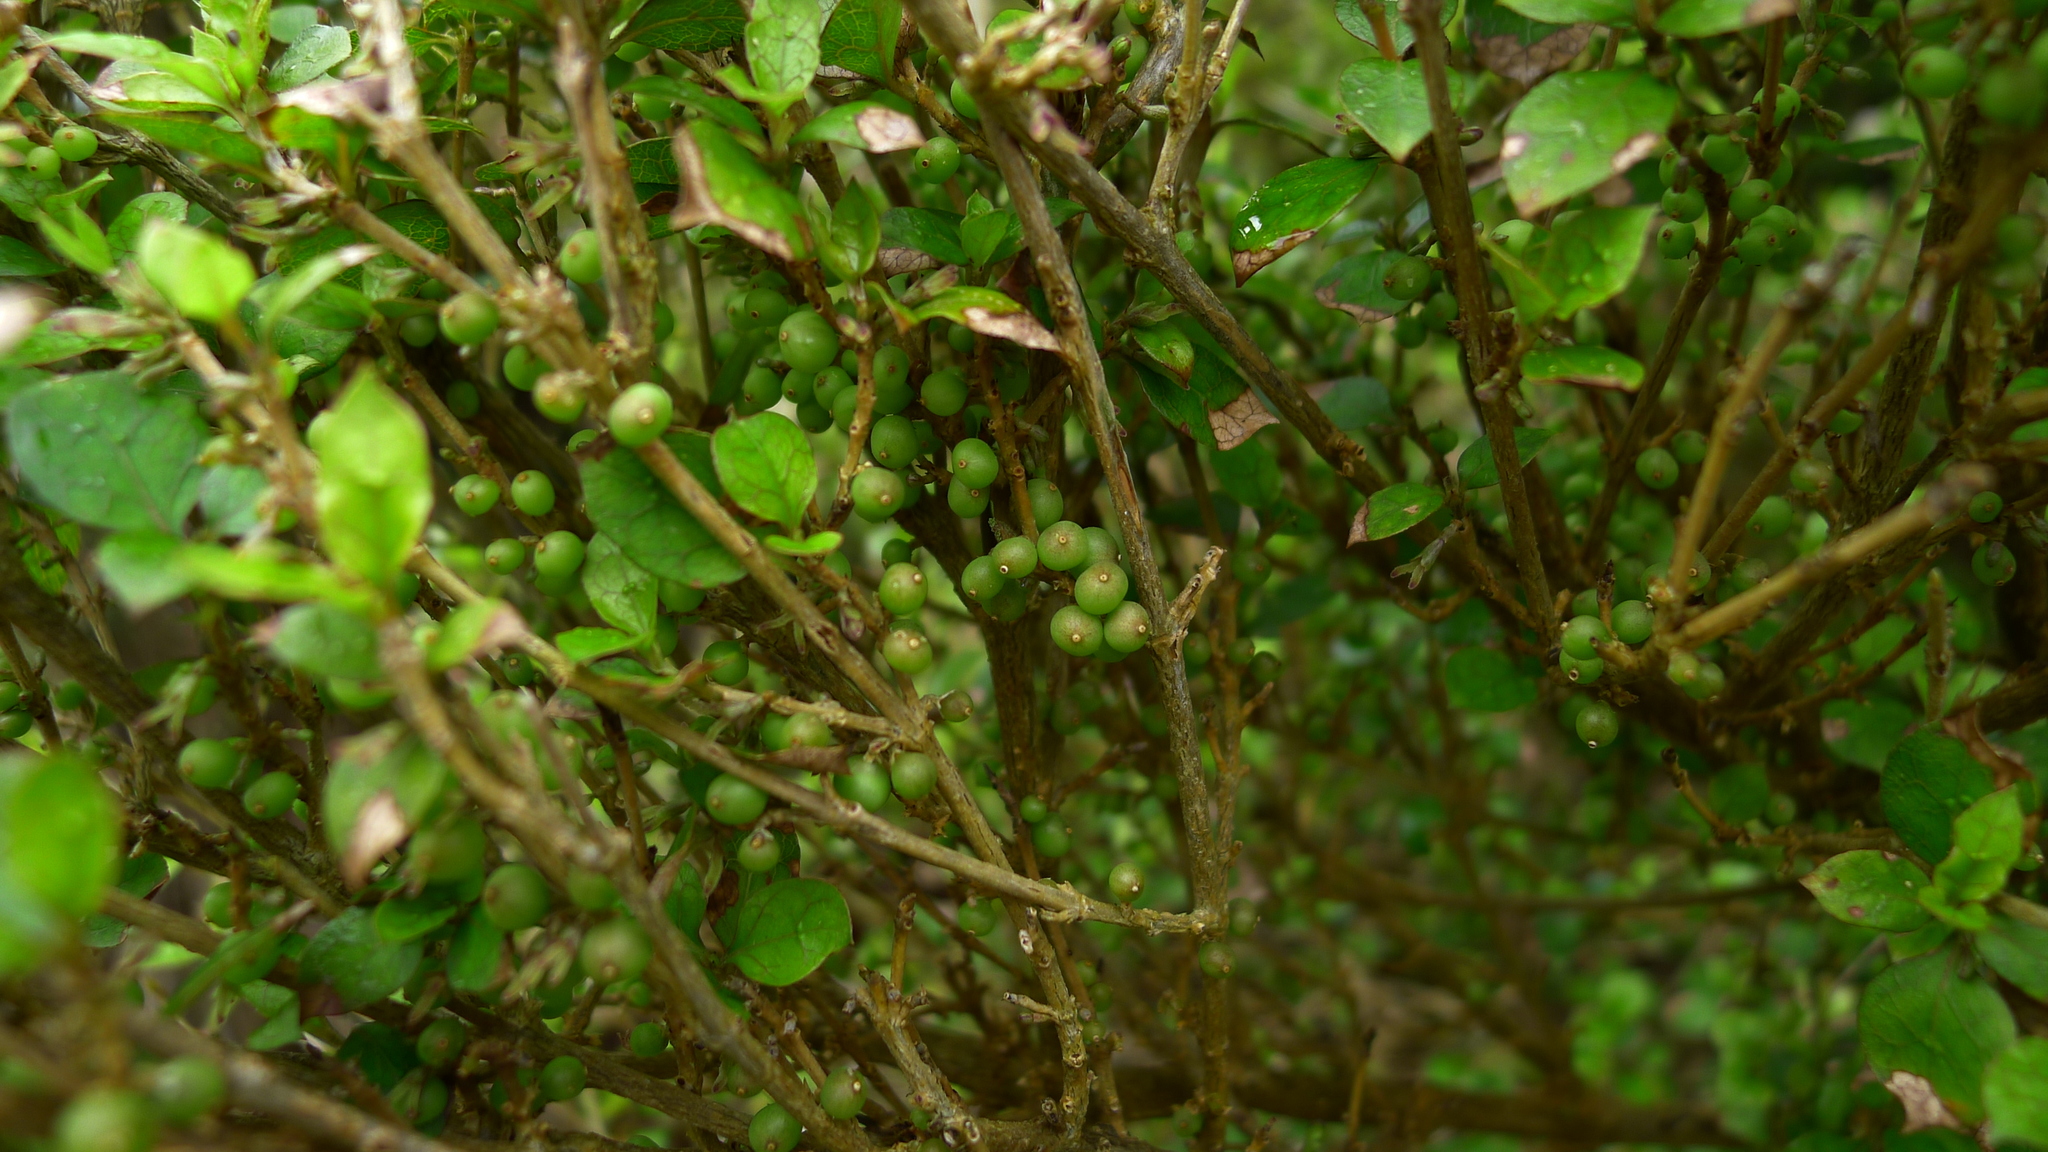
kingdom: Plantae
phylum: Tracheophyta
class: Magnoliopsida
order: Gentianales
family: Rubiaceae
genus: Coprosma
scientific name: Coprosma areolata
